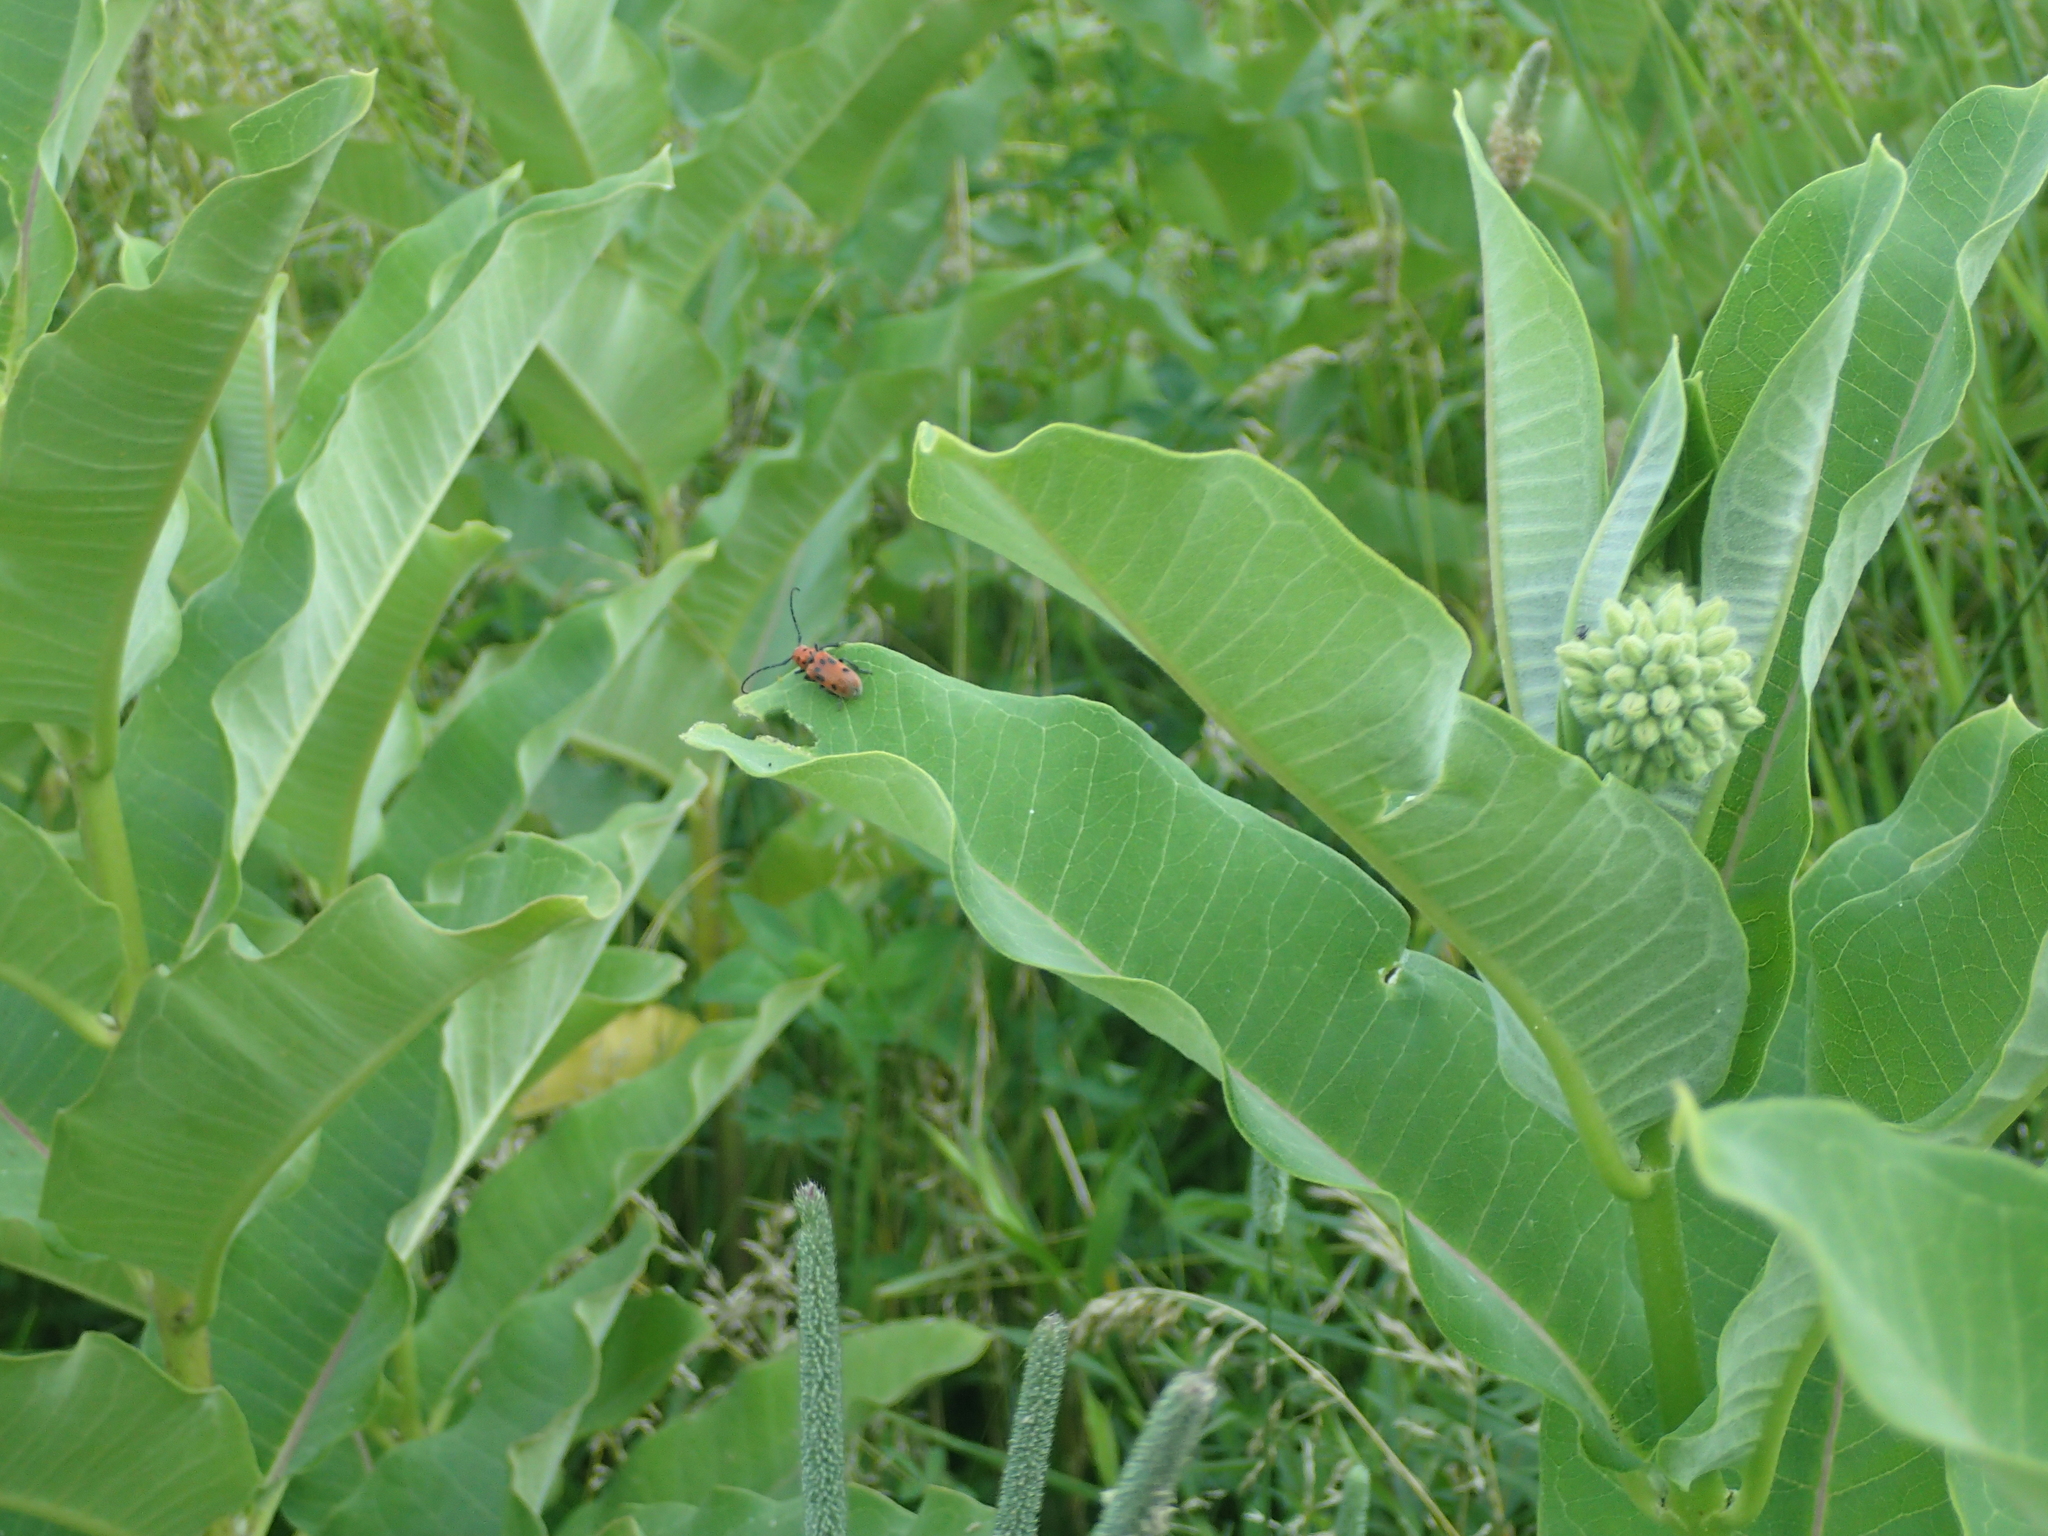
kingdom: Animalia
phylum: Arthropoda
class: Insecta
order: Coleoptera
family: Cerambycidae
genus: Tetraopes
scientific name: Tetraopes tetrophthalmus
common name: Red milkweed beetle
